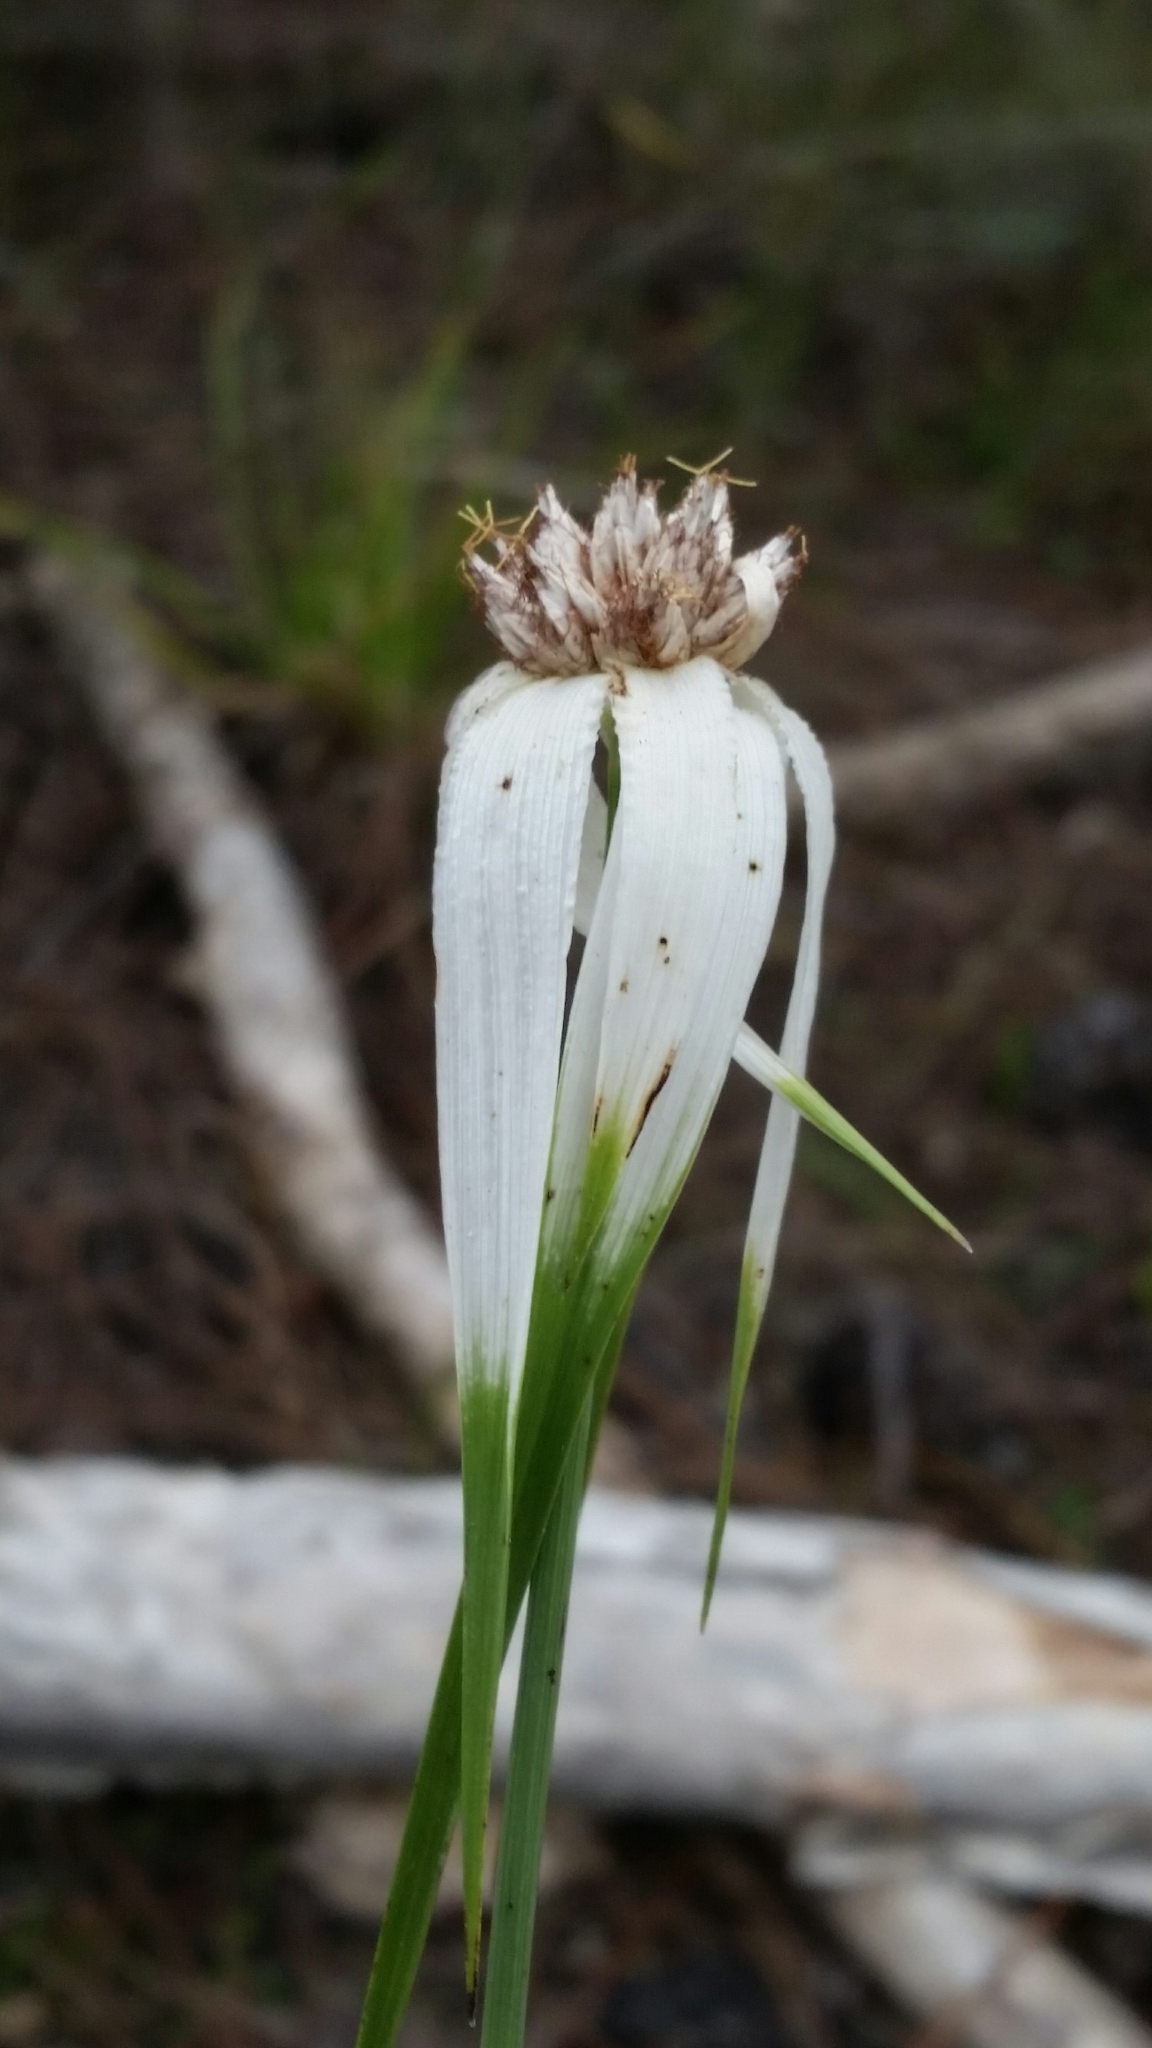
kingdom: Plantae
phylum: Tracheophyta
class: Liliopsida
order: Poales
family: Cyperaceae
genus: Rhynchospora
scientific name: Rhynchospora latifolia
